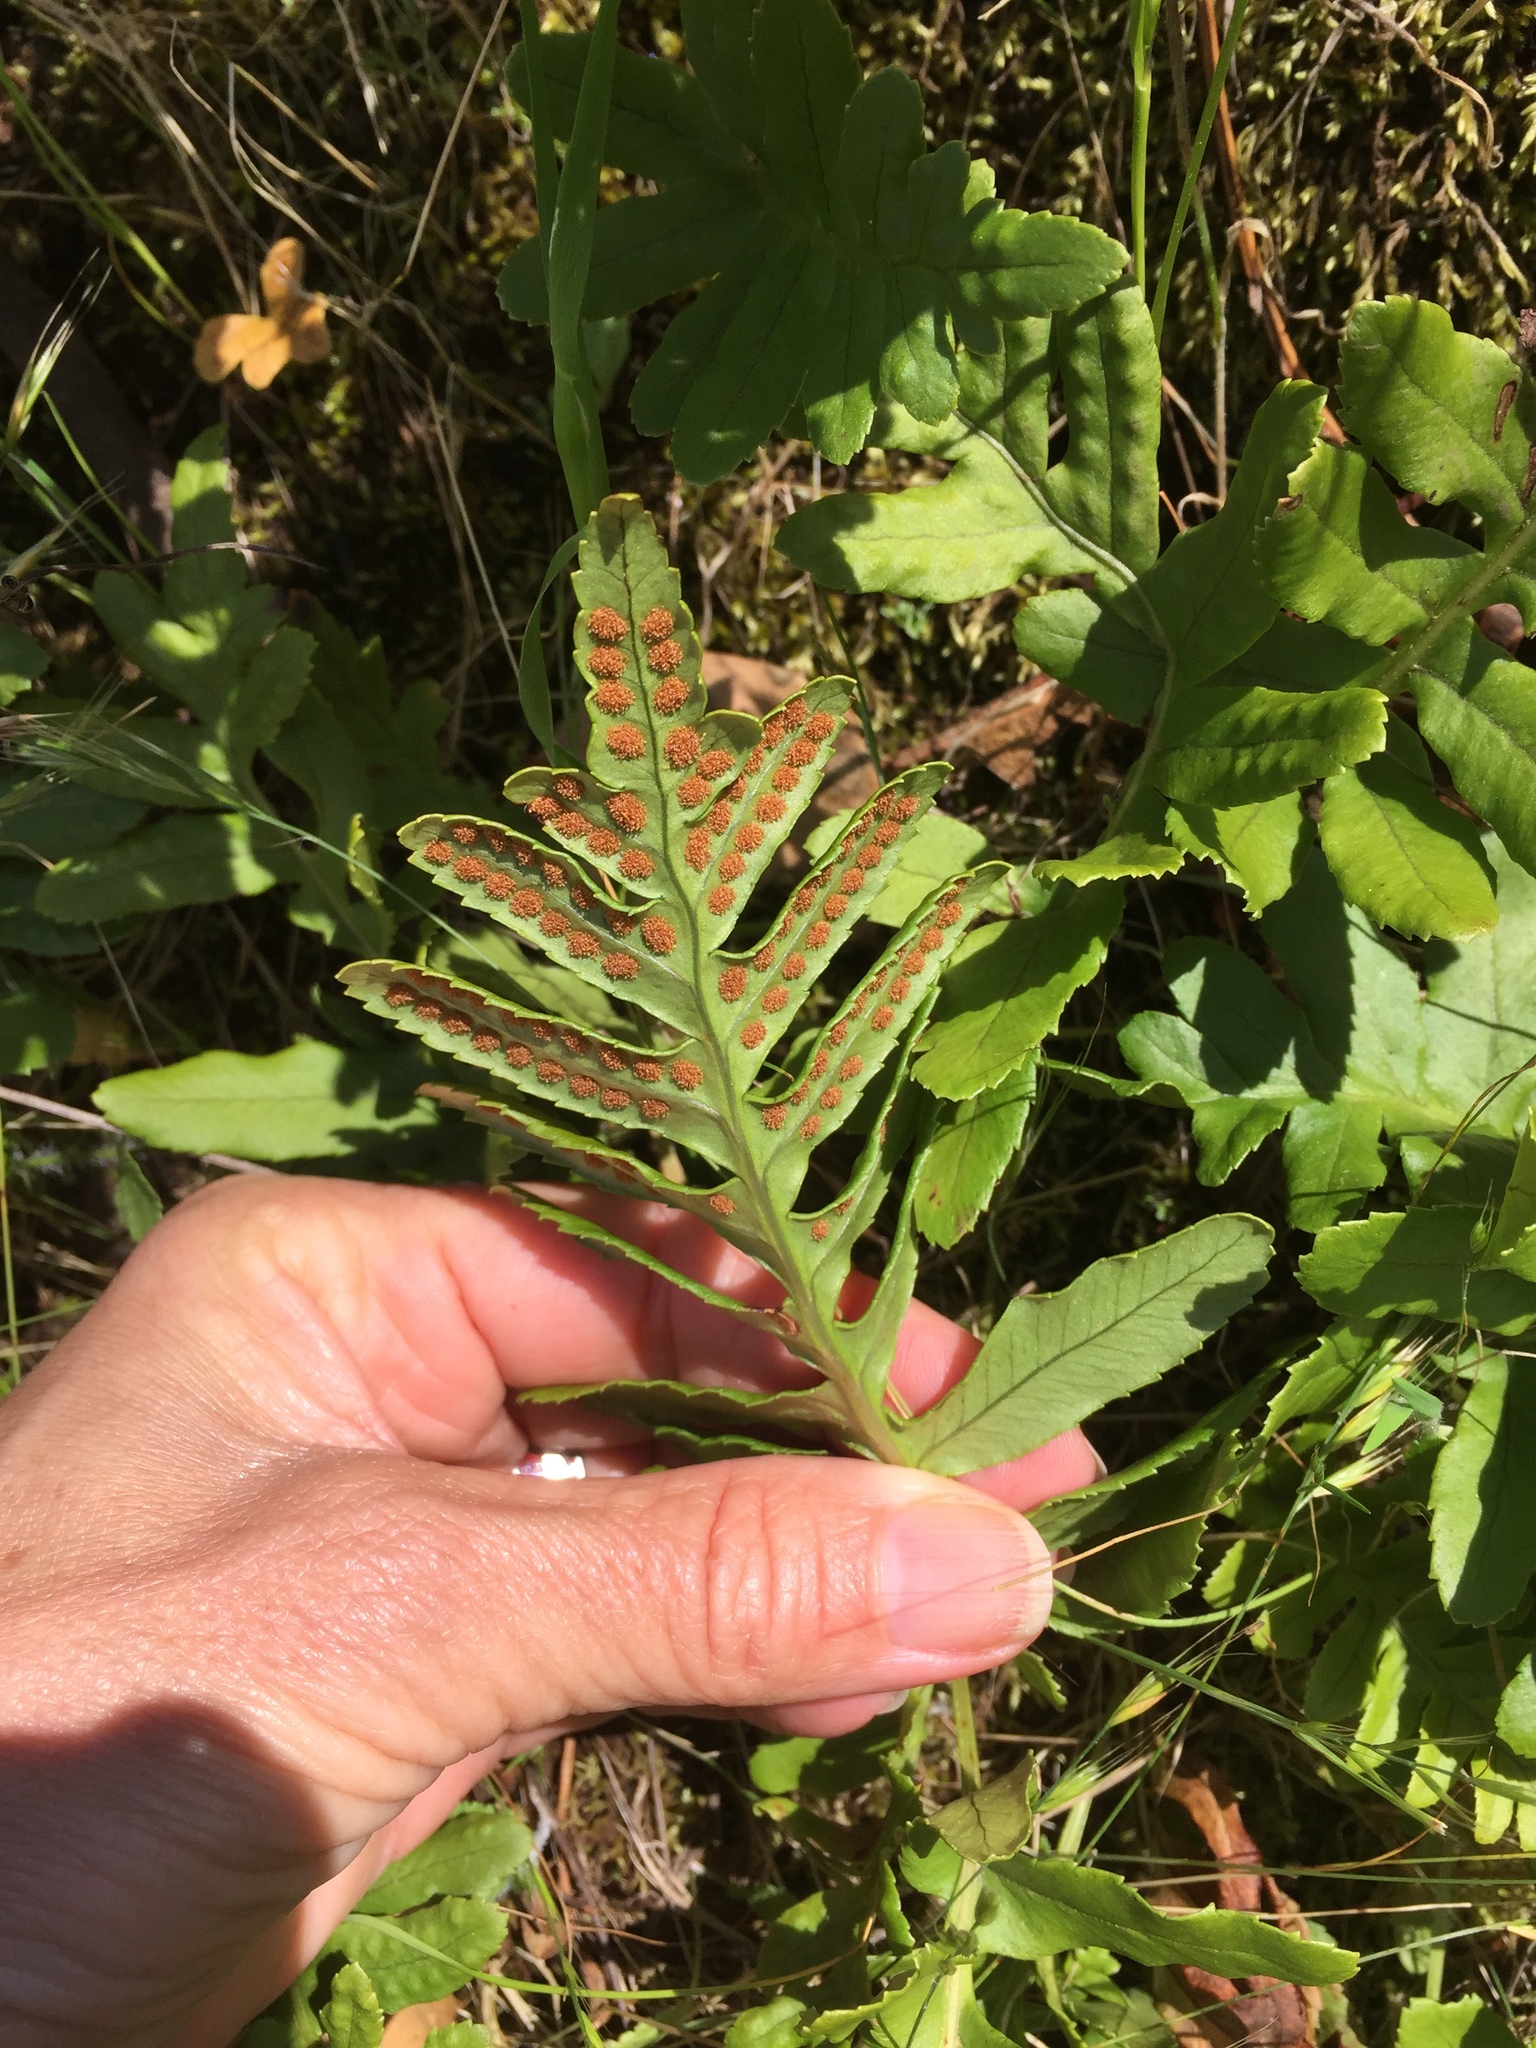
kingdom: Plantae
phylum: Tracheophyta
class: Polypodiopsida
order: Polypodiales
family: Polypodiaceae
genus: Polypodium
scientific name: Polypodium californicum
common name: California polypody
